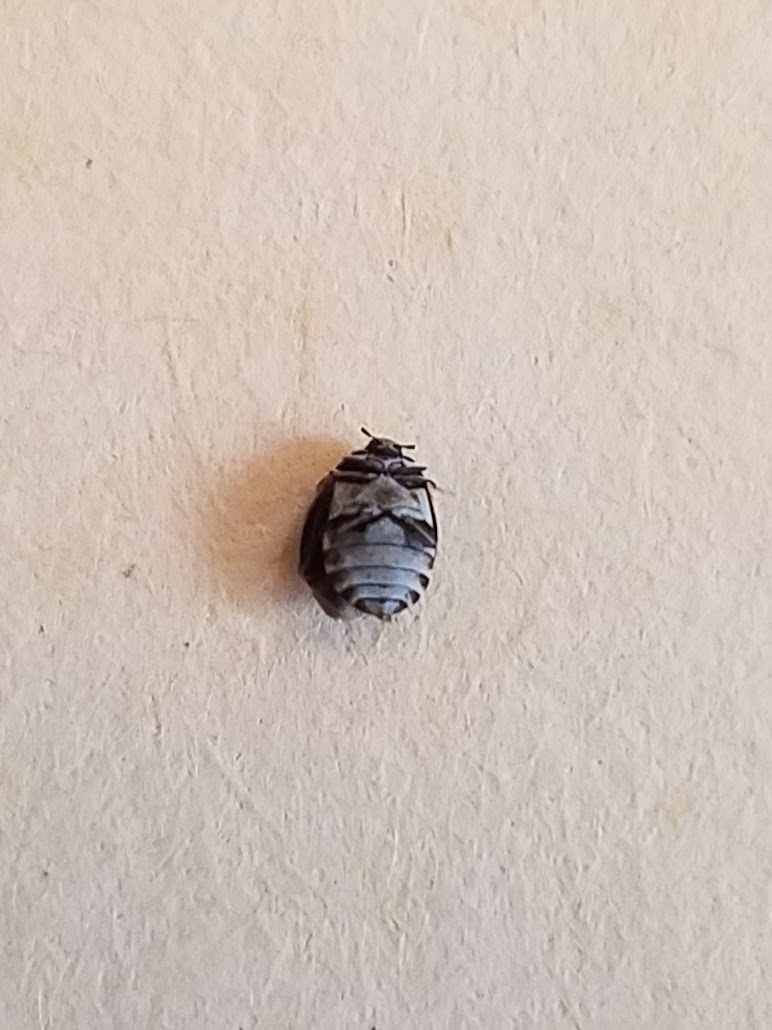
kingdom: Animalia
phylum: Arthropoda
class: Insecta
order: Coleoptera
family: Dermestidae
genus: Anthrenus
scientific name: Anthrenus verbasci
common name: Varied carpet beetle
